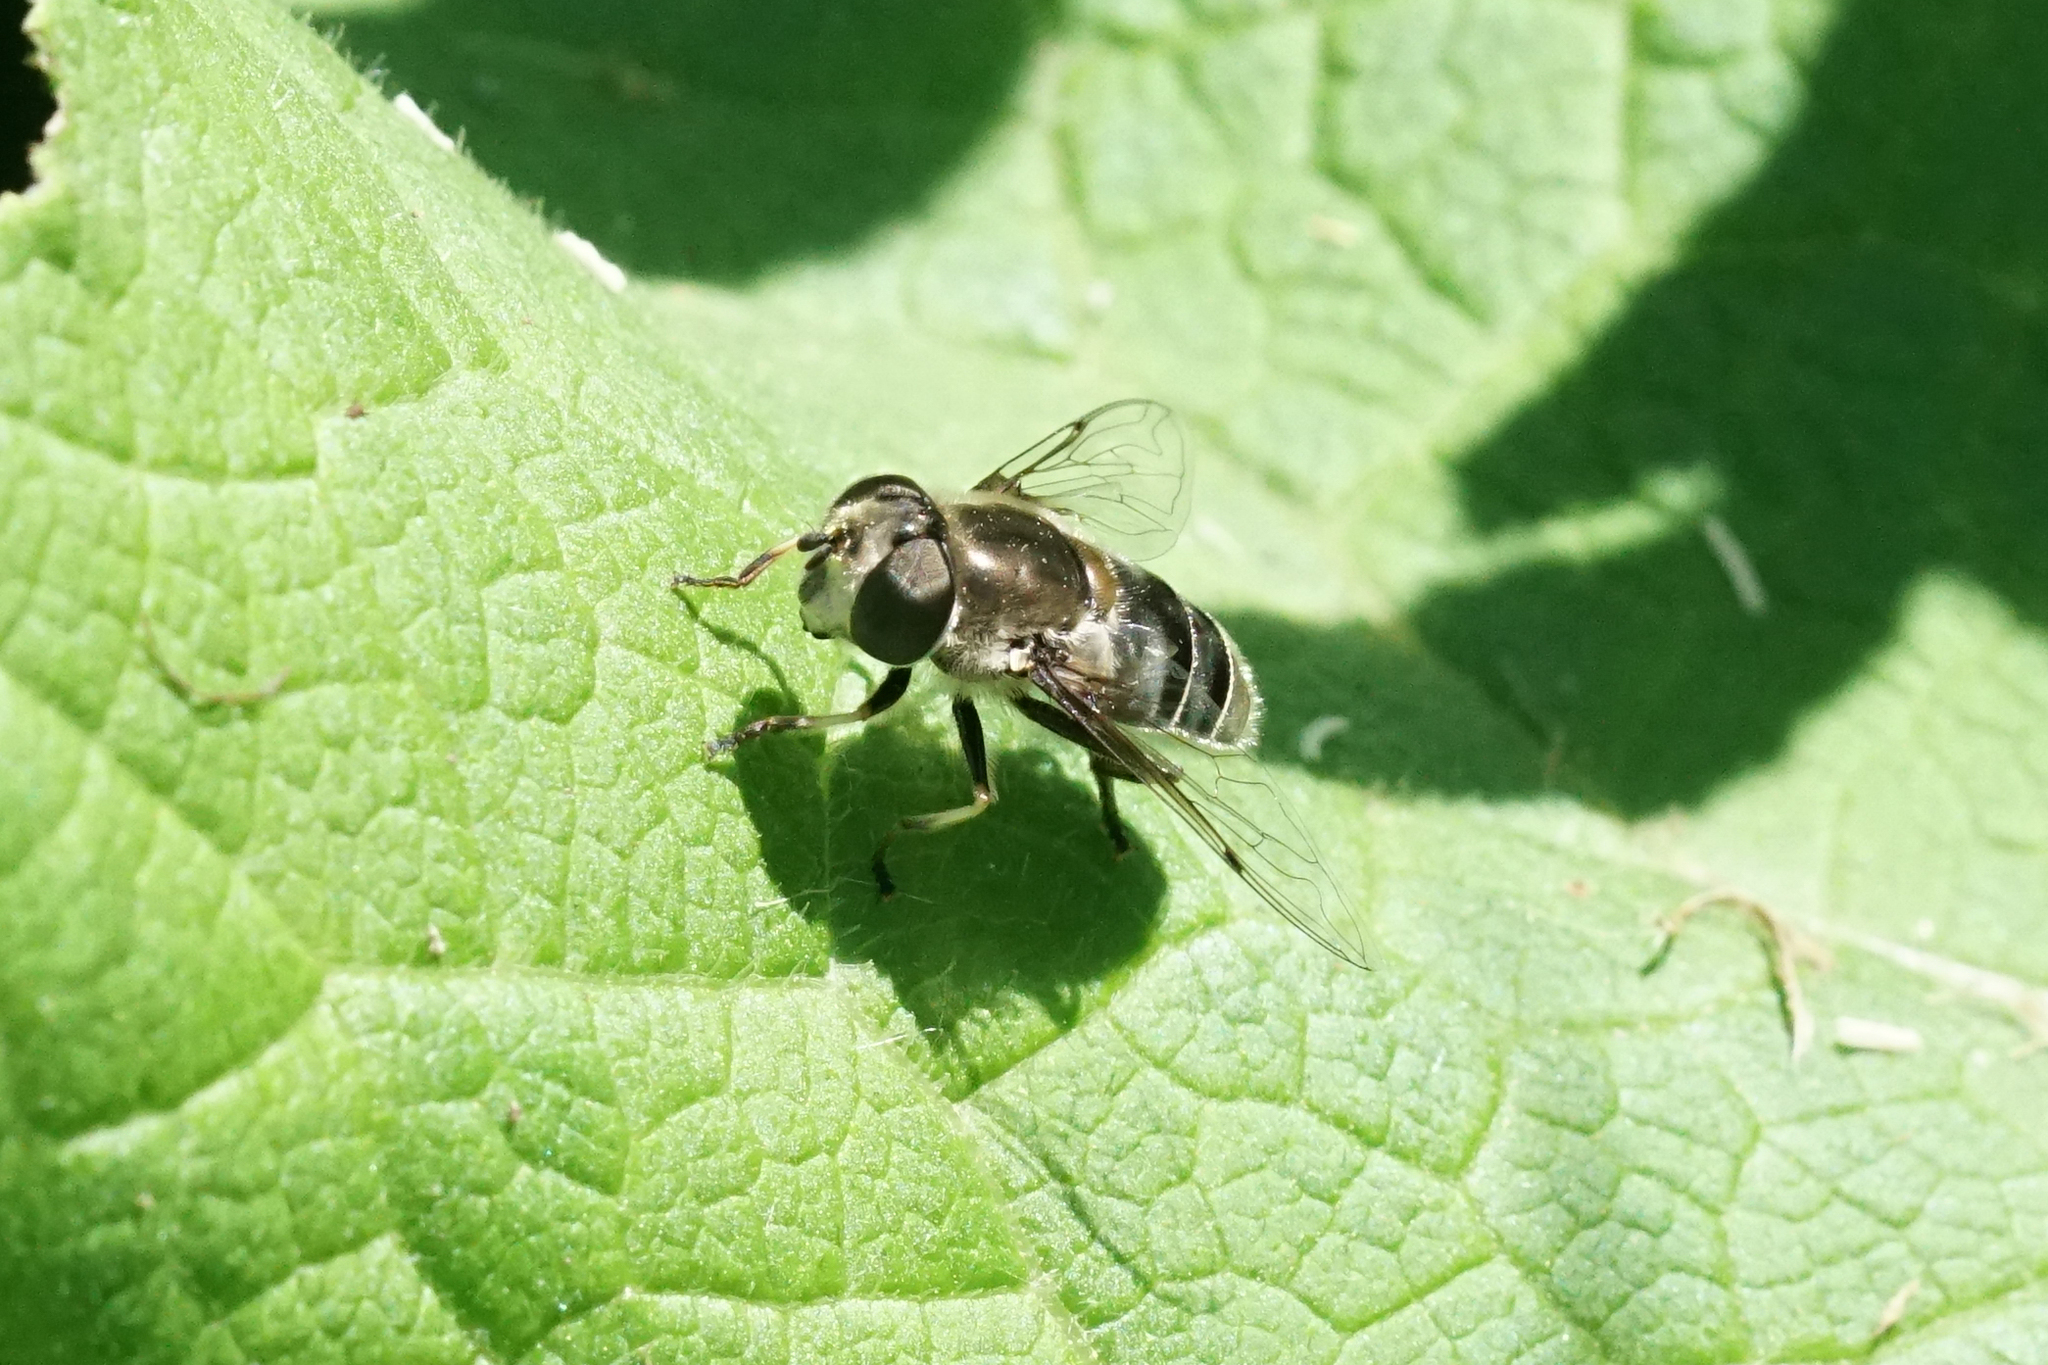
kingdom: Animalia
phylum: Arthropoda
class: Insecta
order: Diptera
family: Syrphidae
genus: Eristalis
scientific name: Eristalis dimidiata
